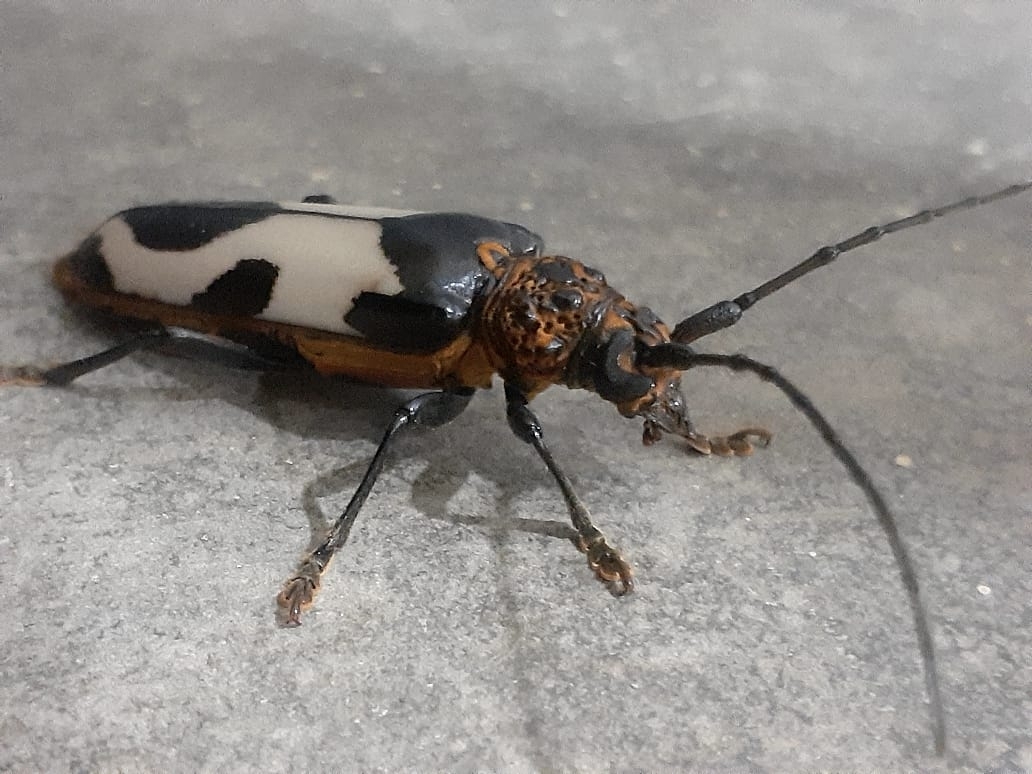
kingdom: Animalia
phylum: Arthropoda
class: Insecta
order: Coleoptera
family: Cerambycidae
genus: Metacriodion
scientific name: Metacriodion pictum
